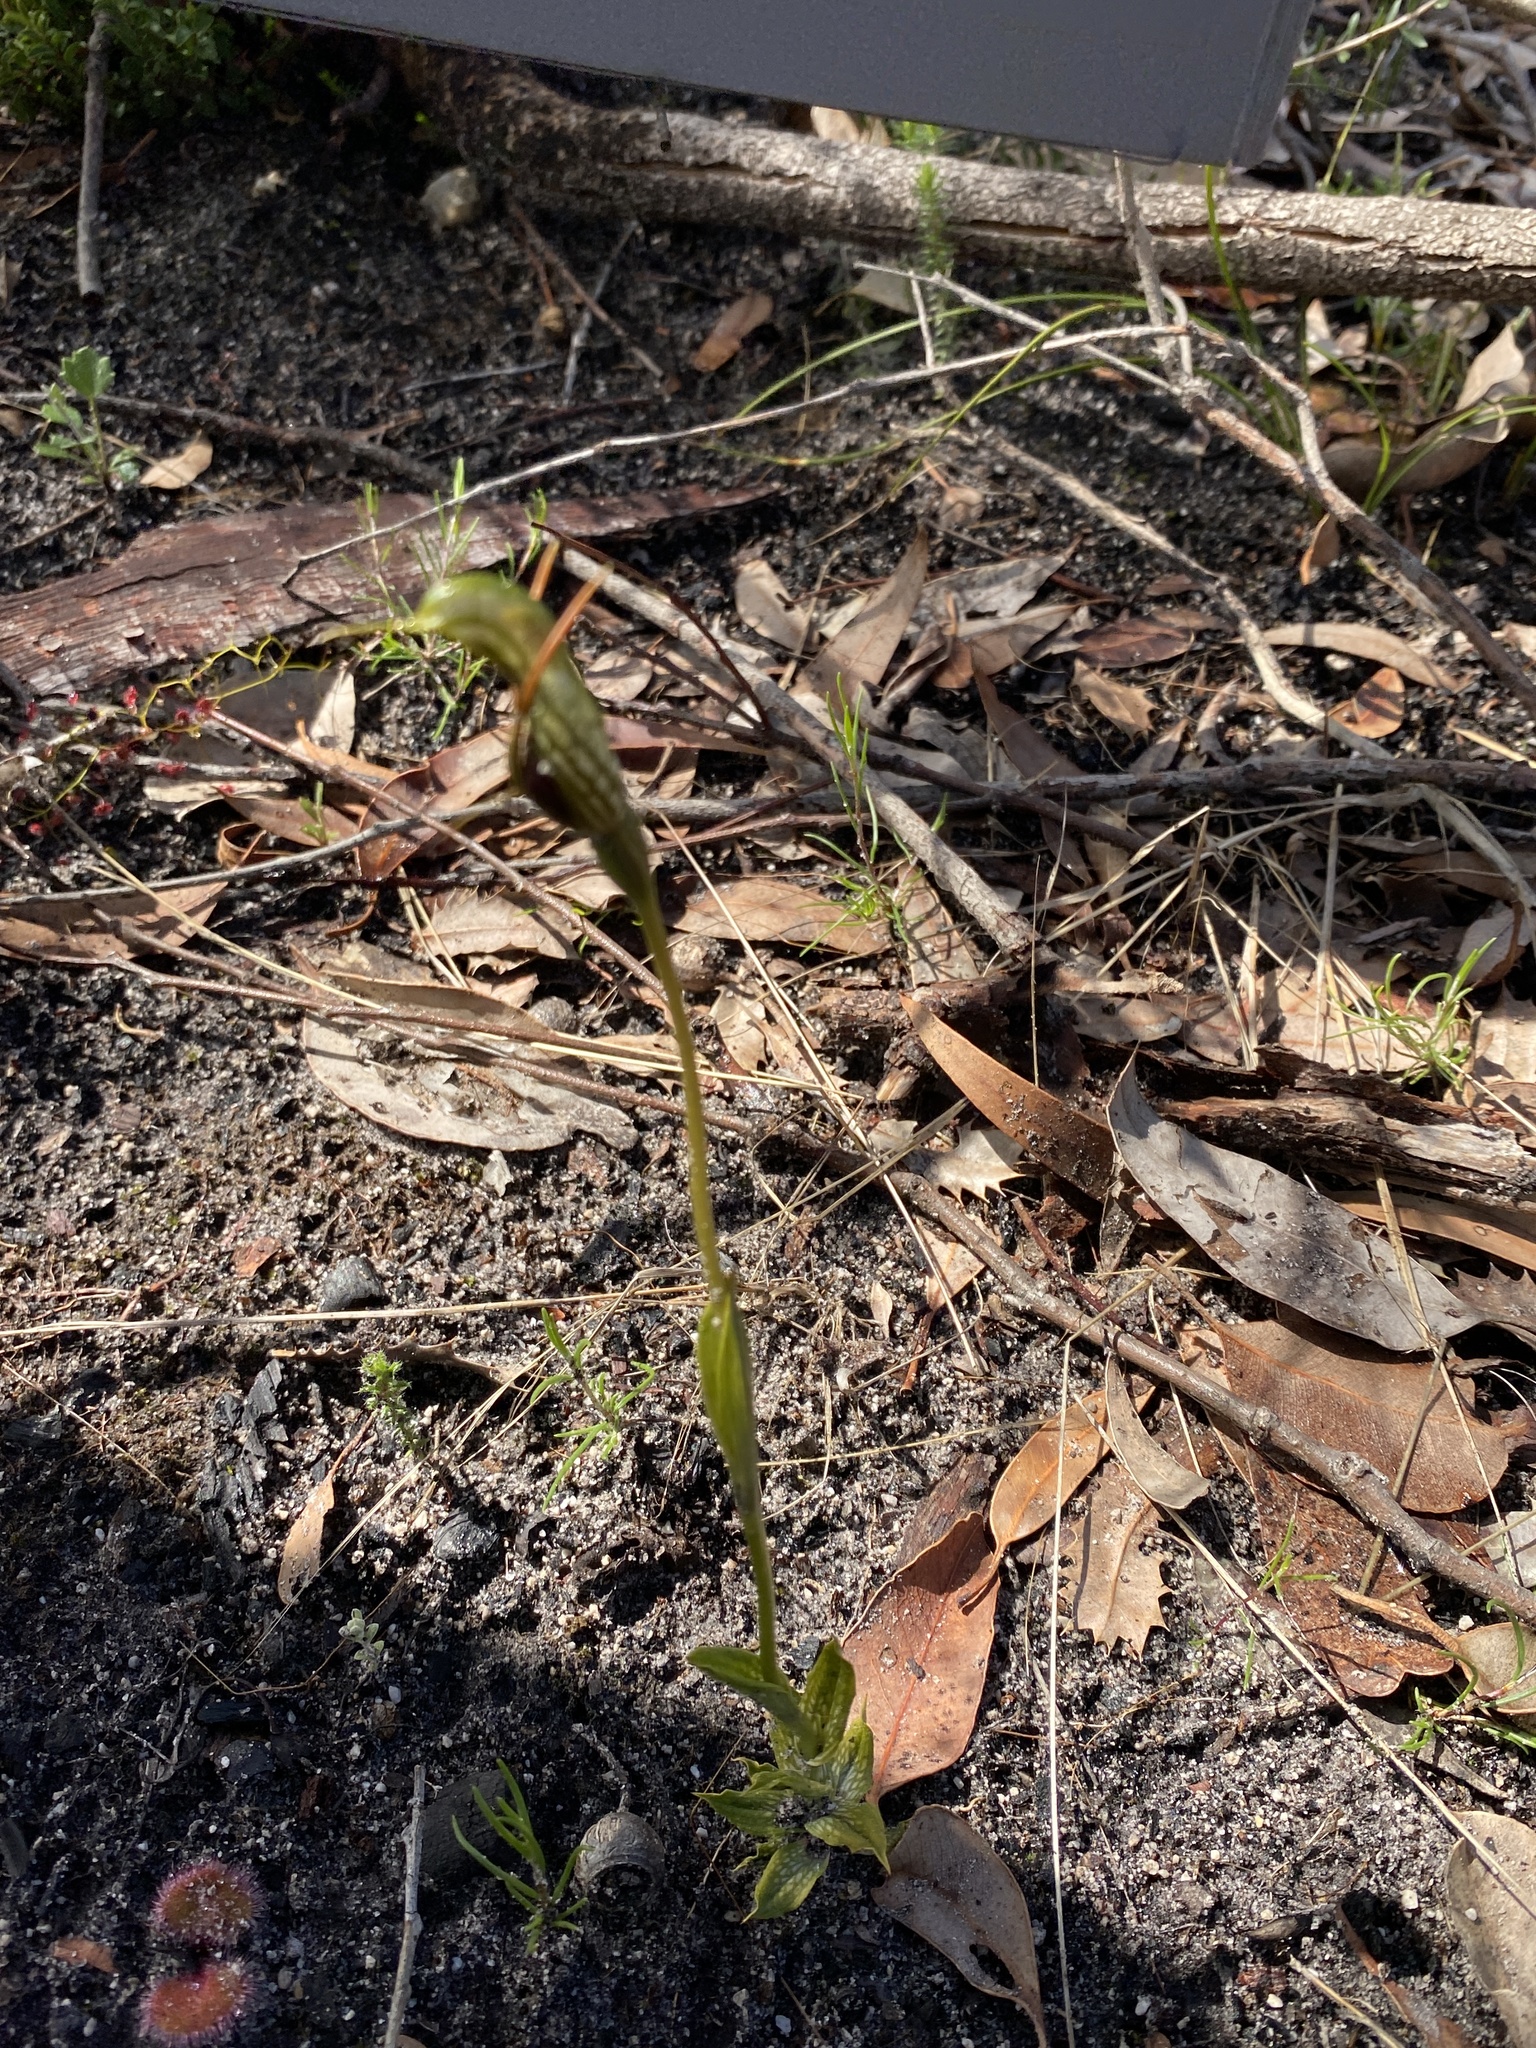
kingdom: Plantae
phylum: Tracheophyta
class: Liliopsida
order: Asparagales
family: Orchidaceae
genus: Pterostylis
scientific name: Pterostylis barbata
